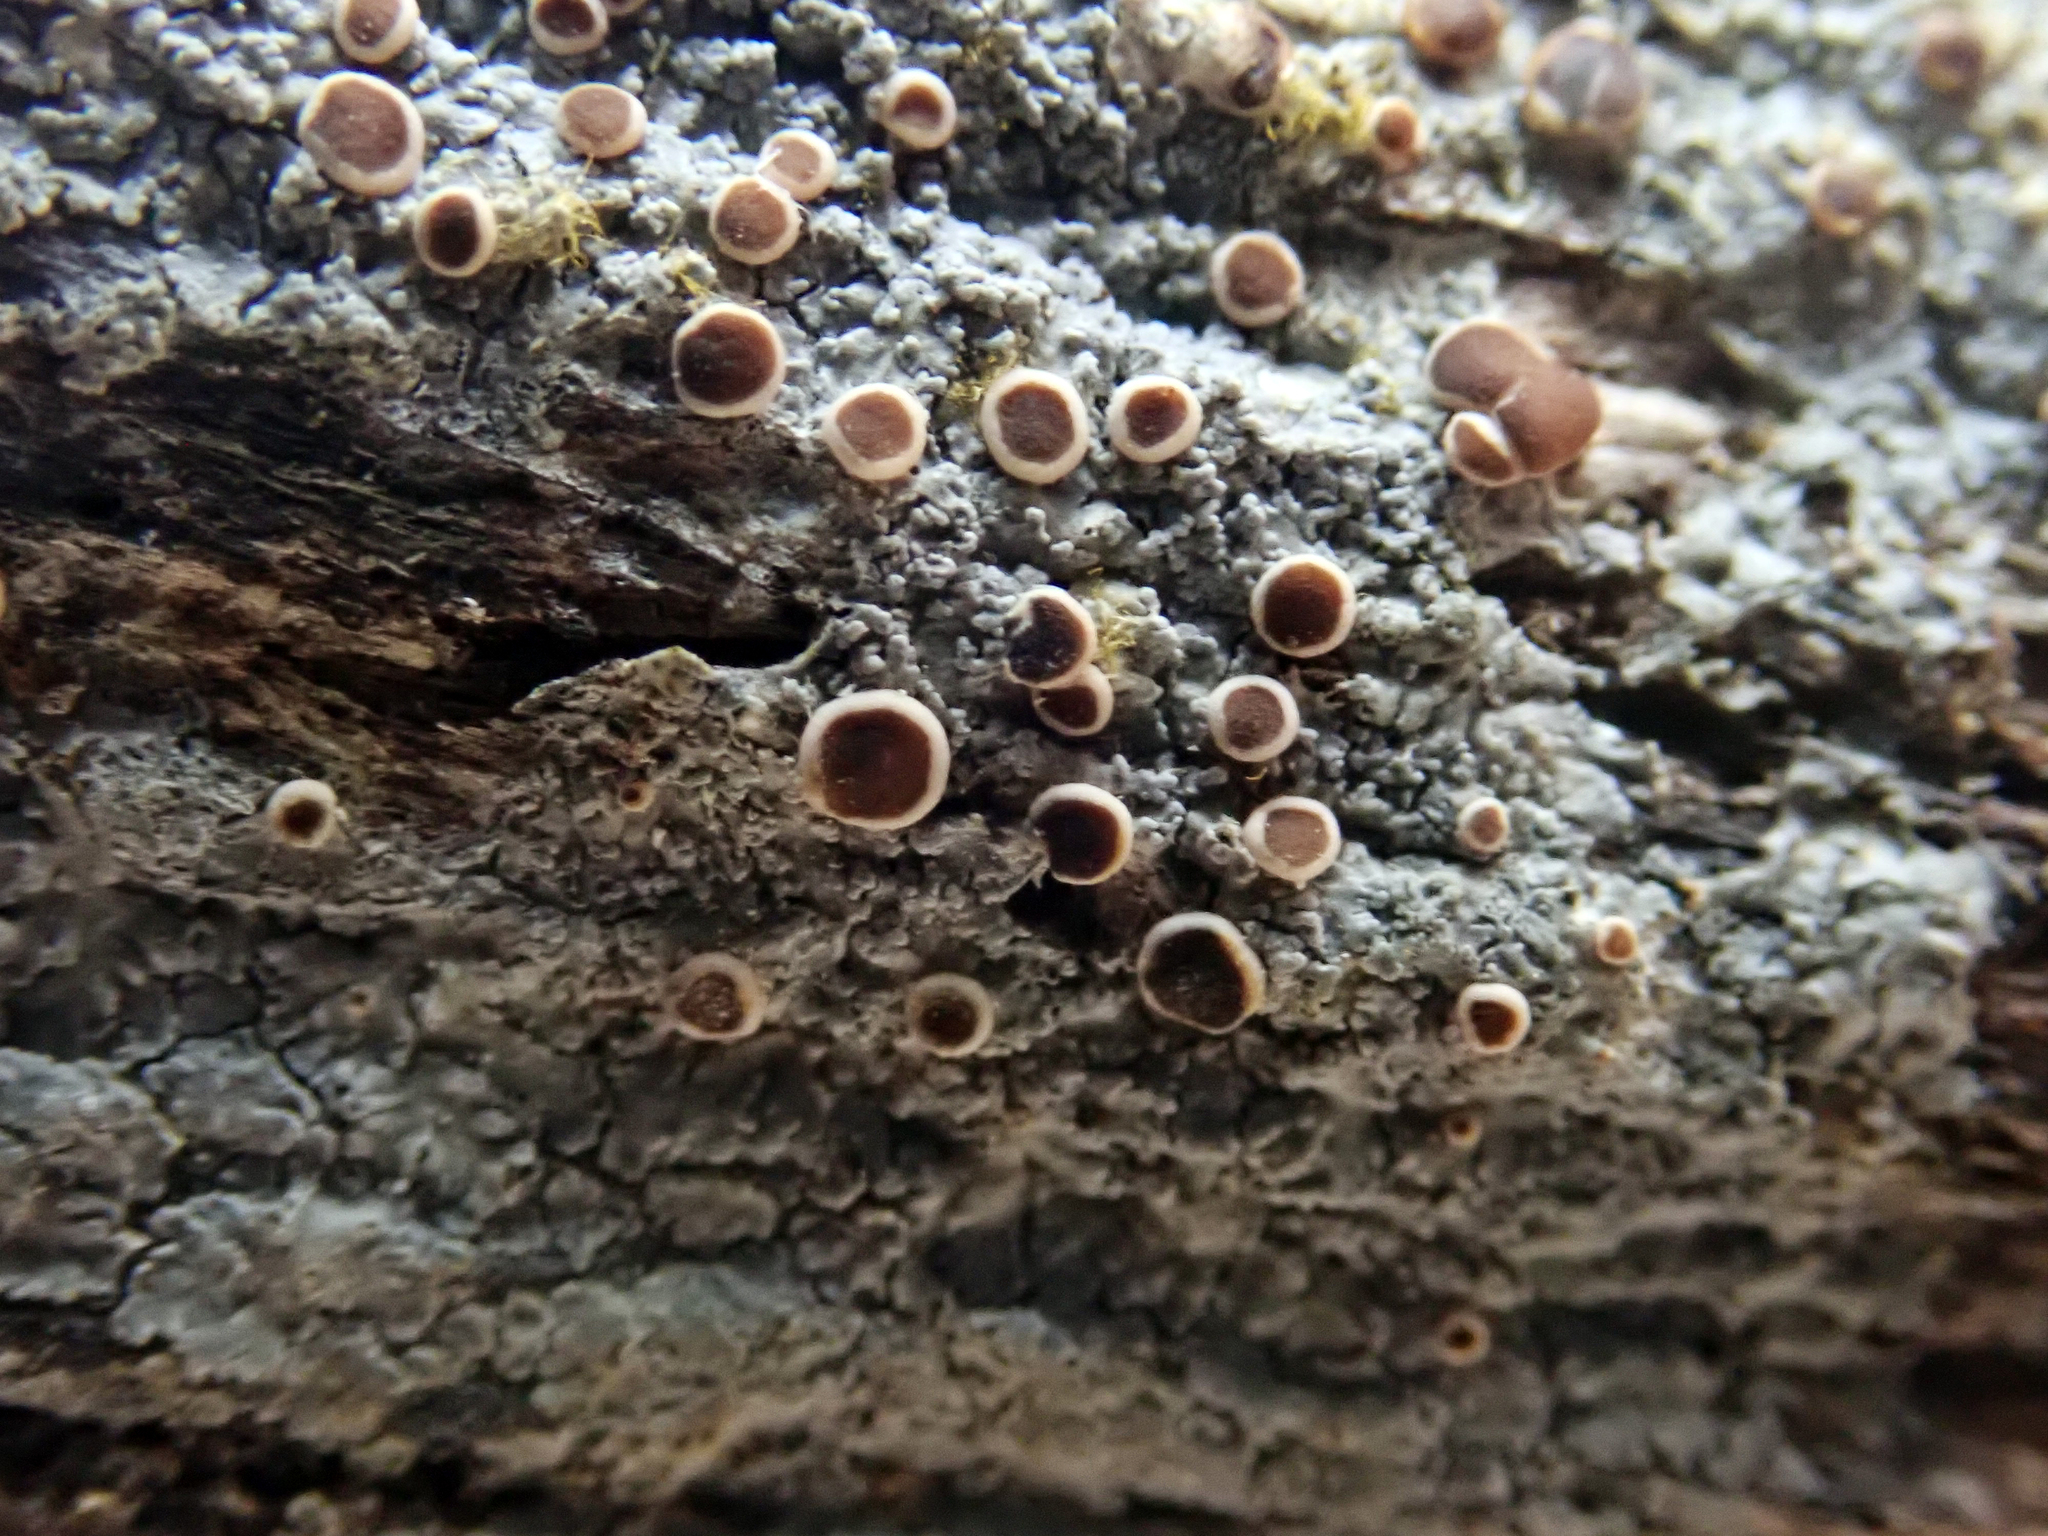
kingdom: Fungi
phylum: Ascomycota
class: Lecanoromycetes
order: Peltigerales
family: Pannariaceae
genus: Parmeliella
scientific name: Parmeliella nigrocincta
